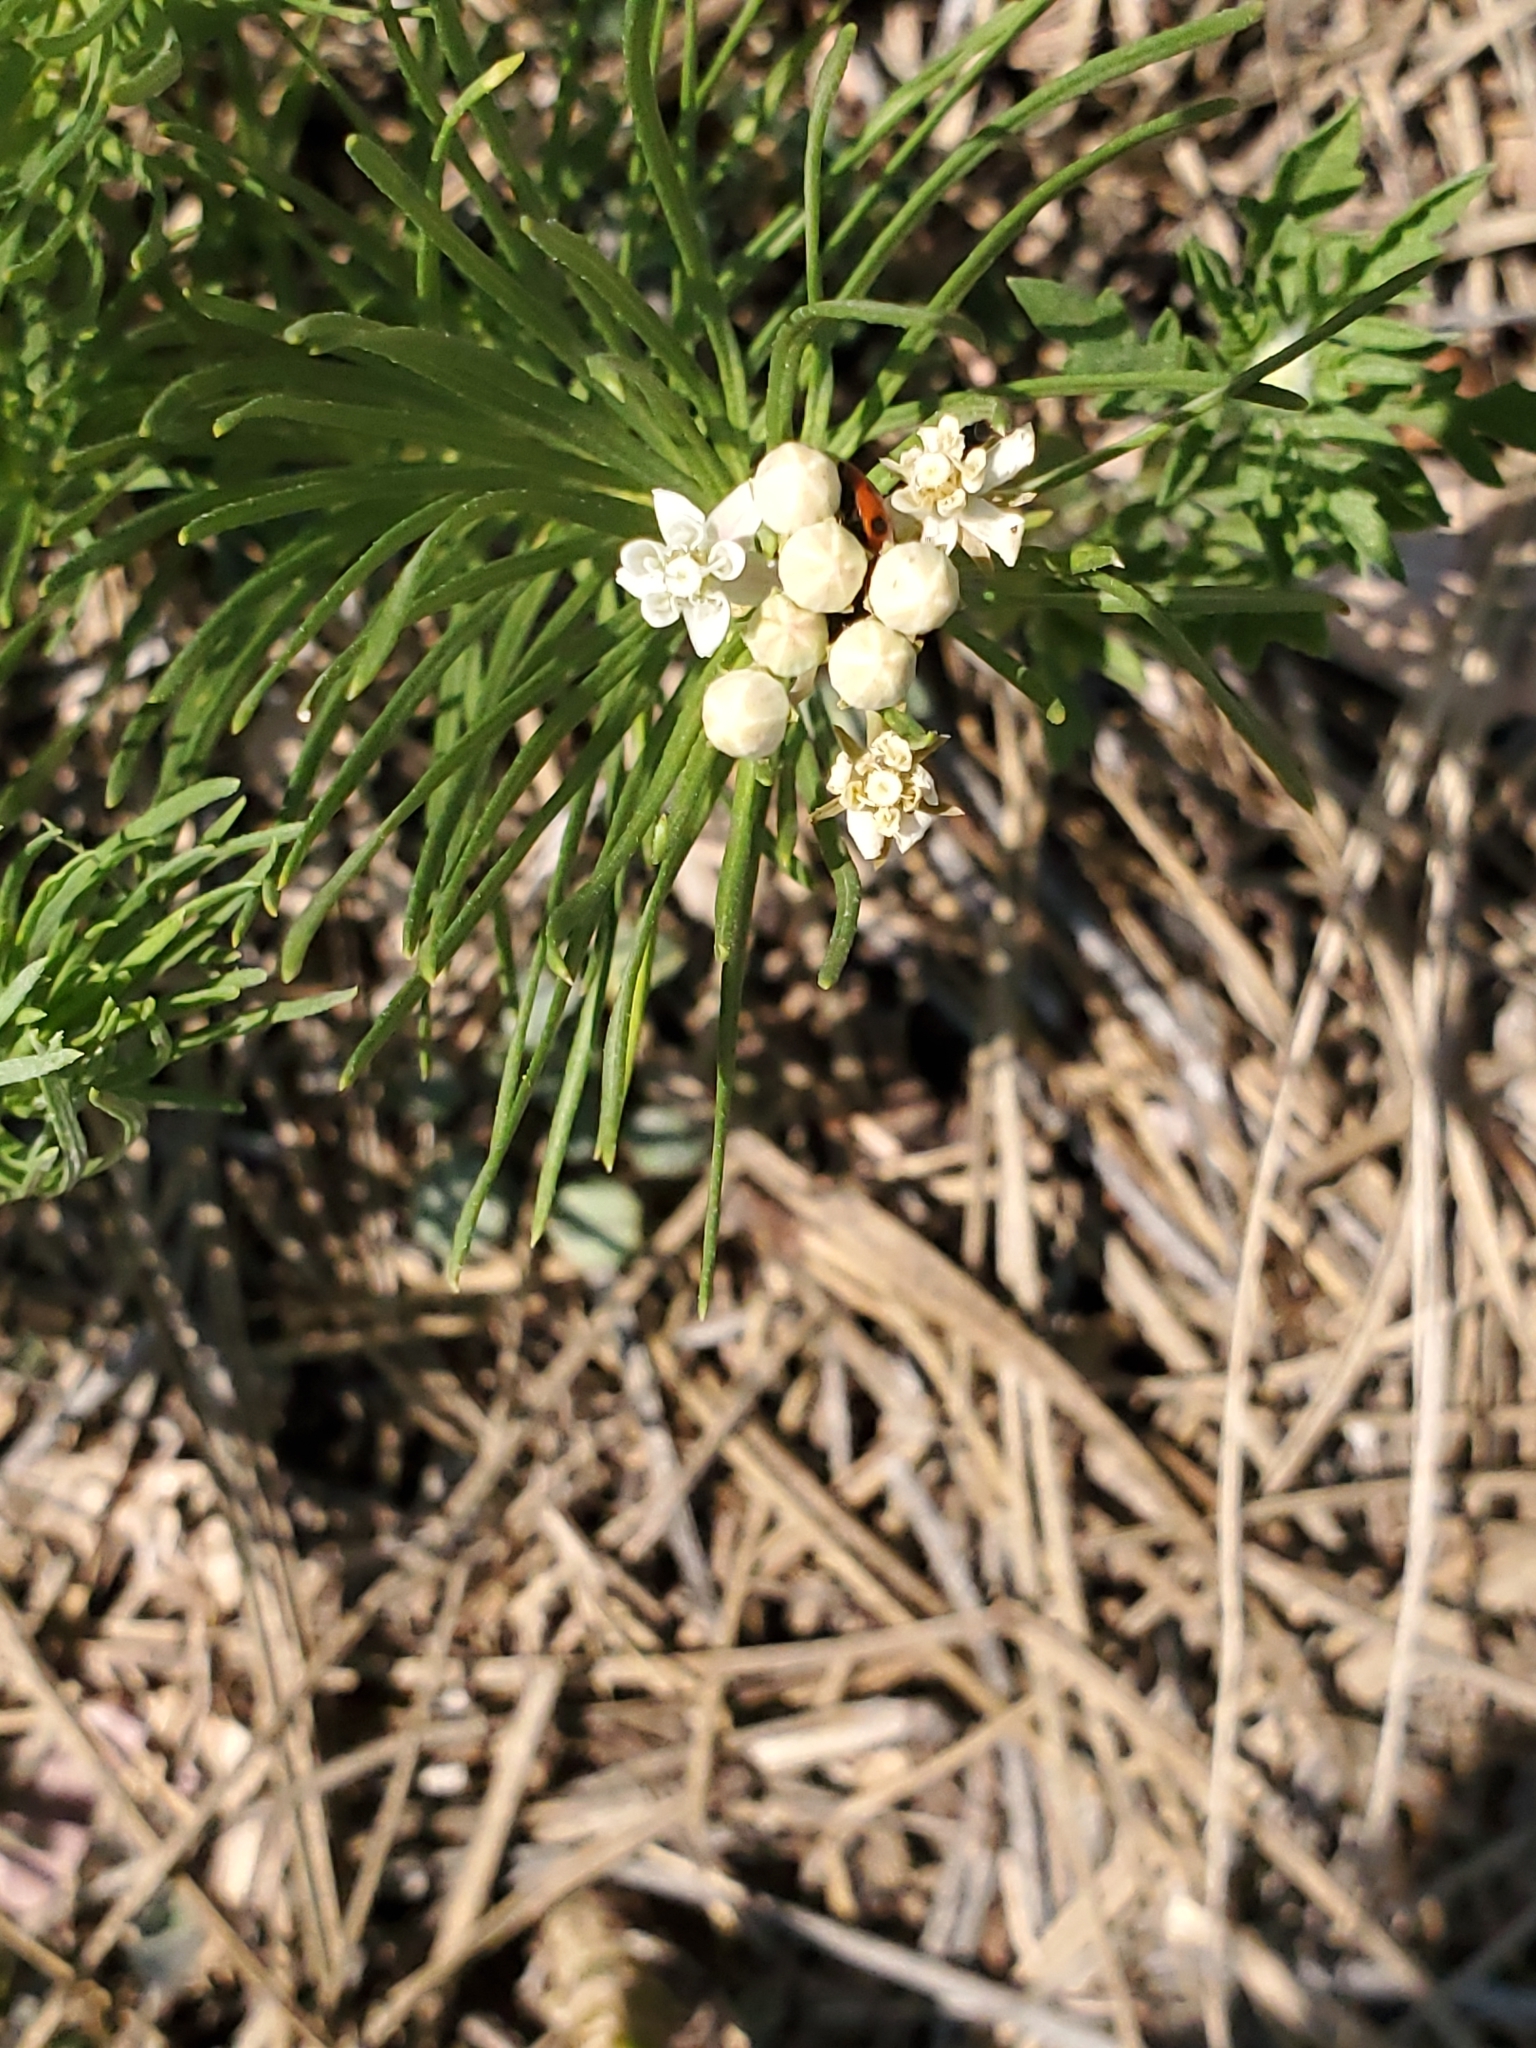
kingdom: Plantae
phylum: Tracheophyta
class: Magnoliopsida
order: Gentianales
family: Apocynaceae
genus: Asclepias
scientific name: Asclepias pumila
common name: Dwarf milkweed
